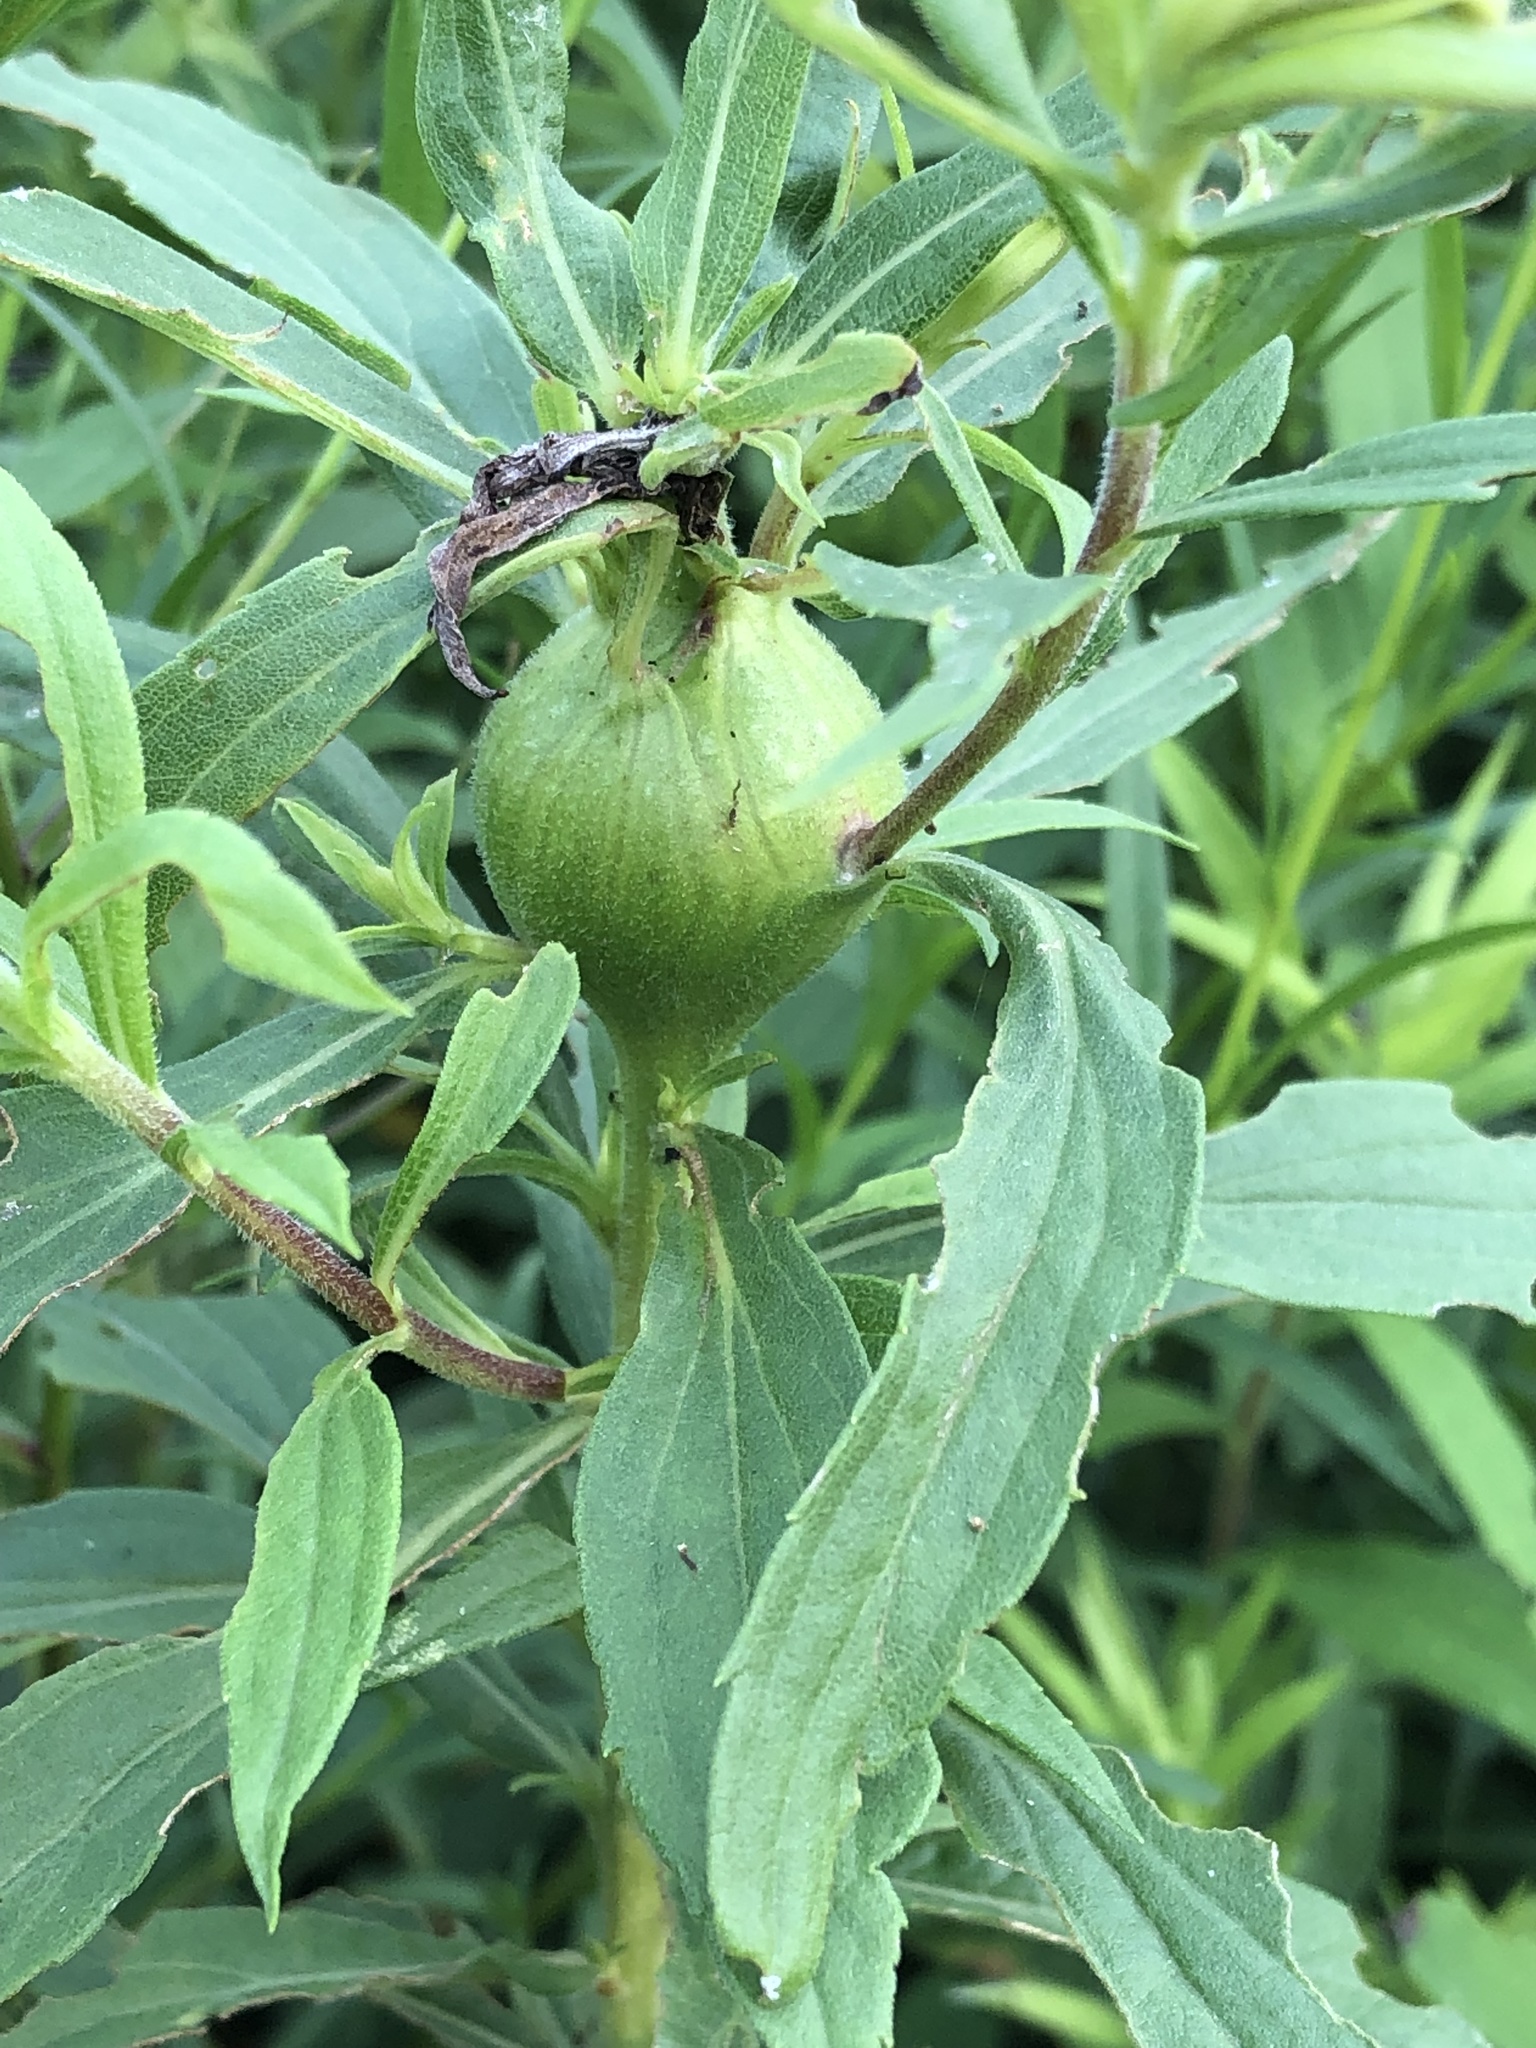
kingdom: Animalia
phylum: Arthropoda
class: Insecta
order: Diptera
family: Tephritidae
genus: Eurosta
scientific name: Eurosta solidaginis
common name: Goldenrod gall fly
